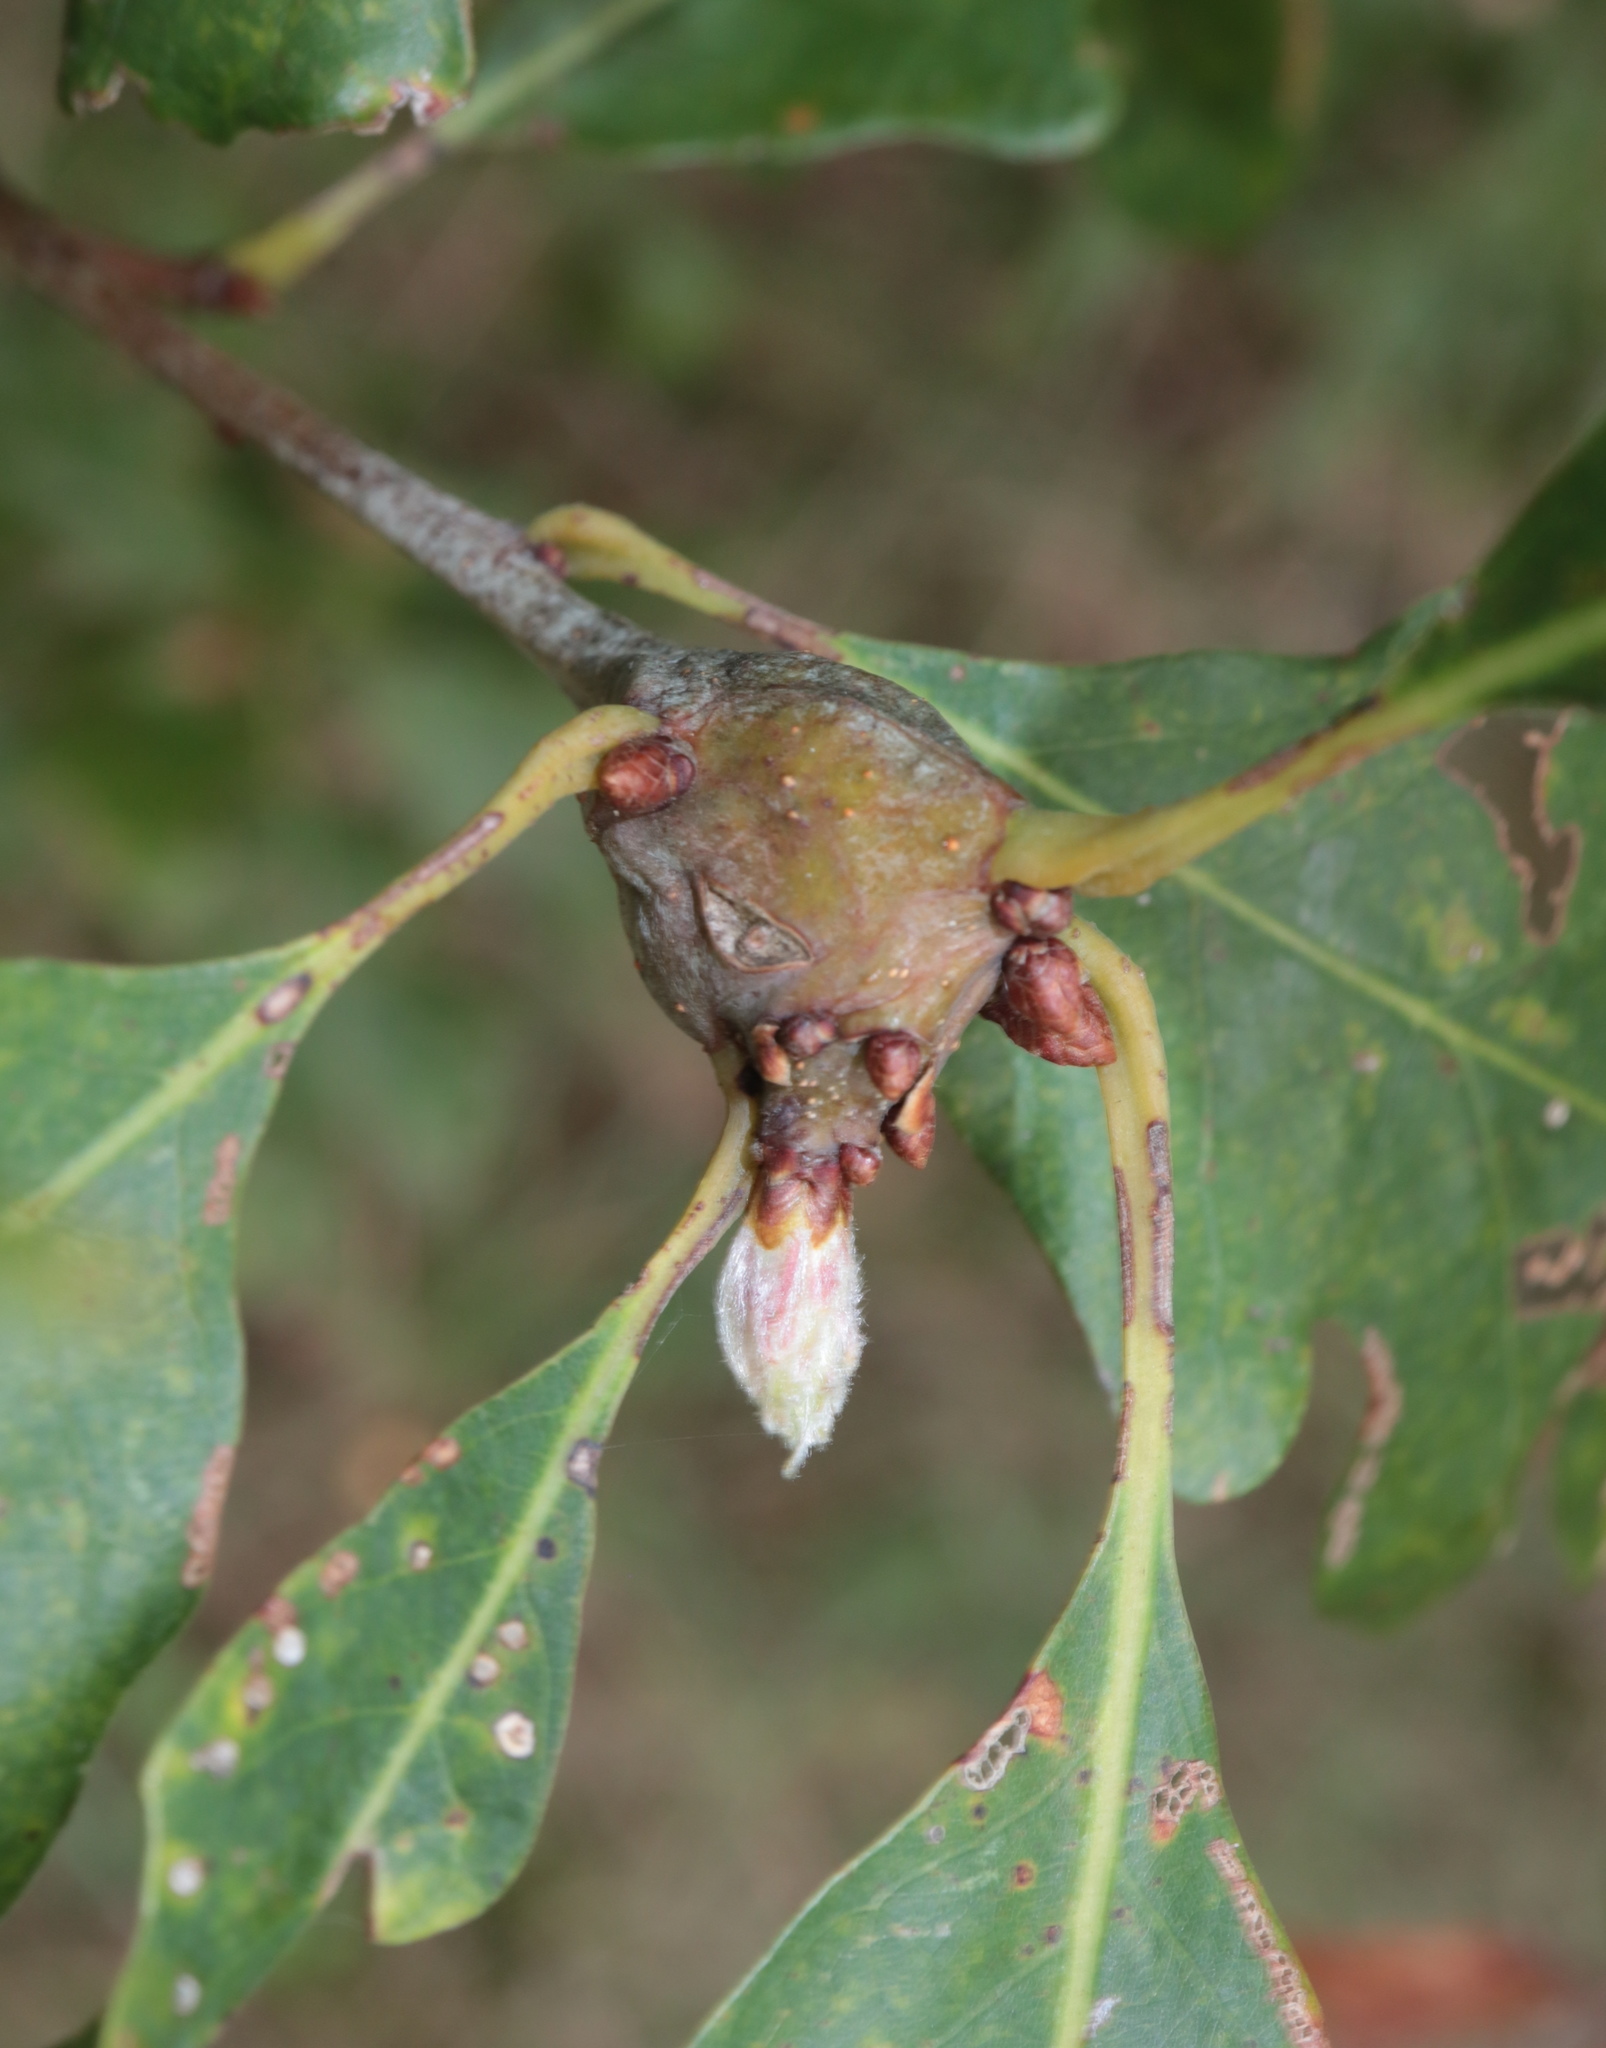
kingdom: Animalia
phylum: Arthropoda
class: Insecta
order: Hymenoptera
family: Cynipidae
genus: Callirhytis
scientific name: Callirhytis clavula
